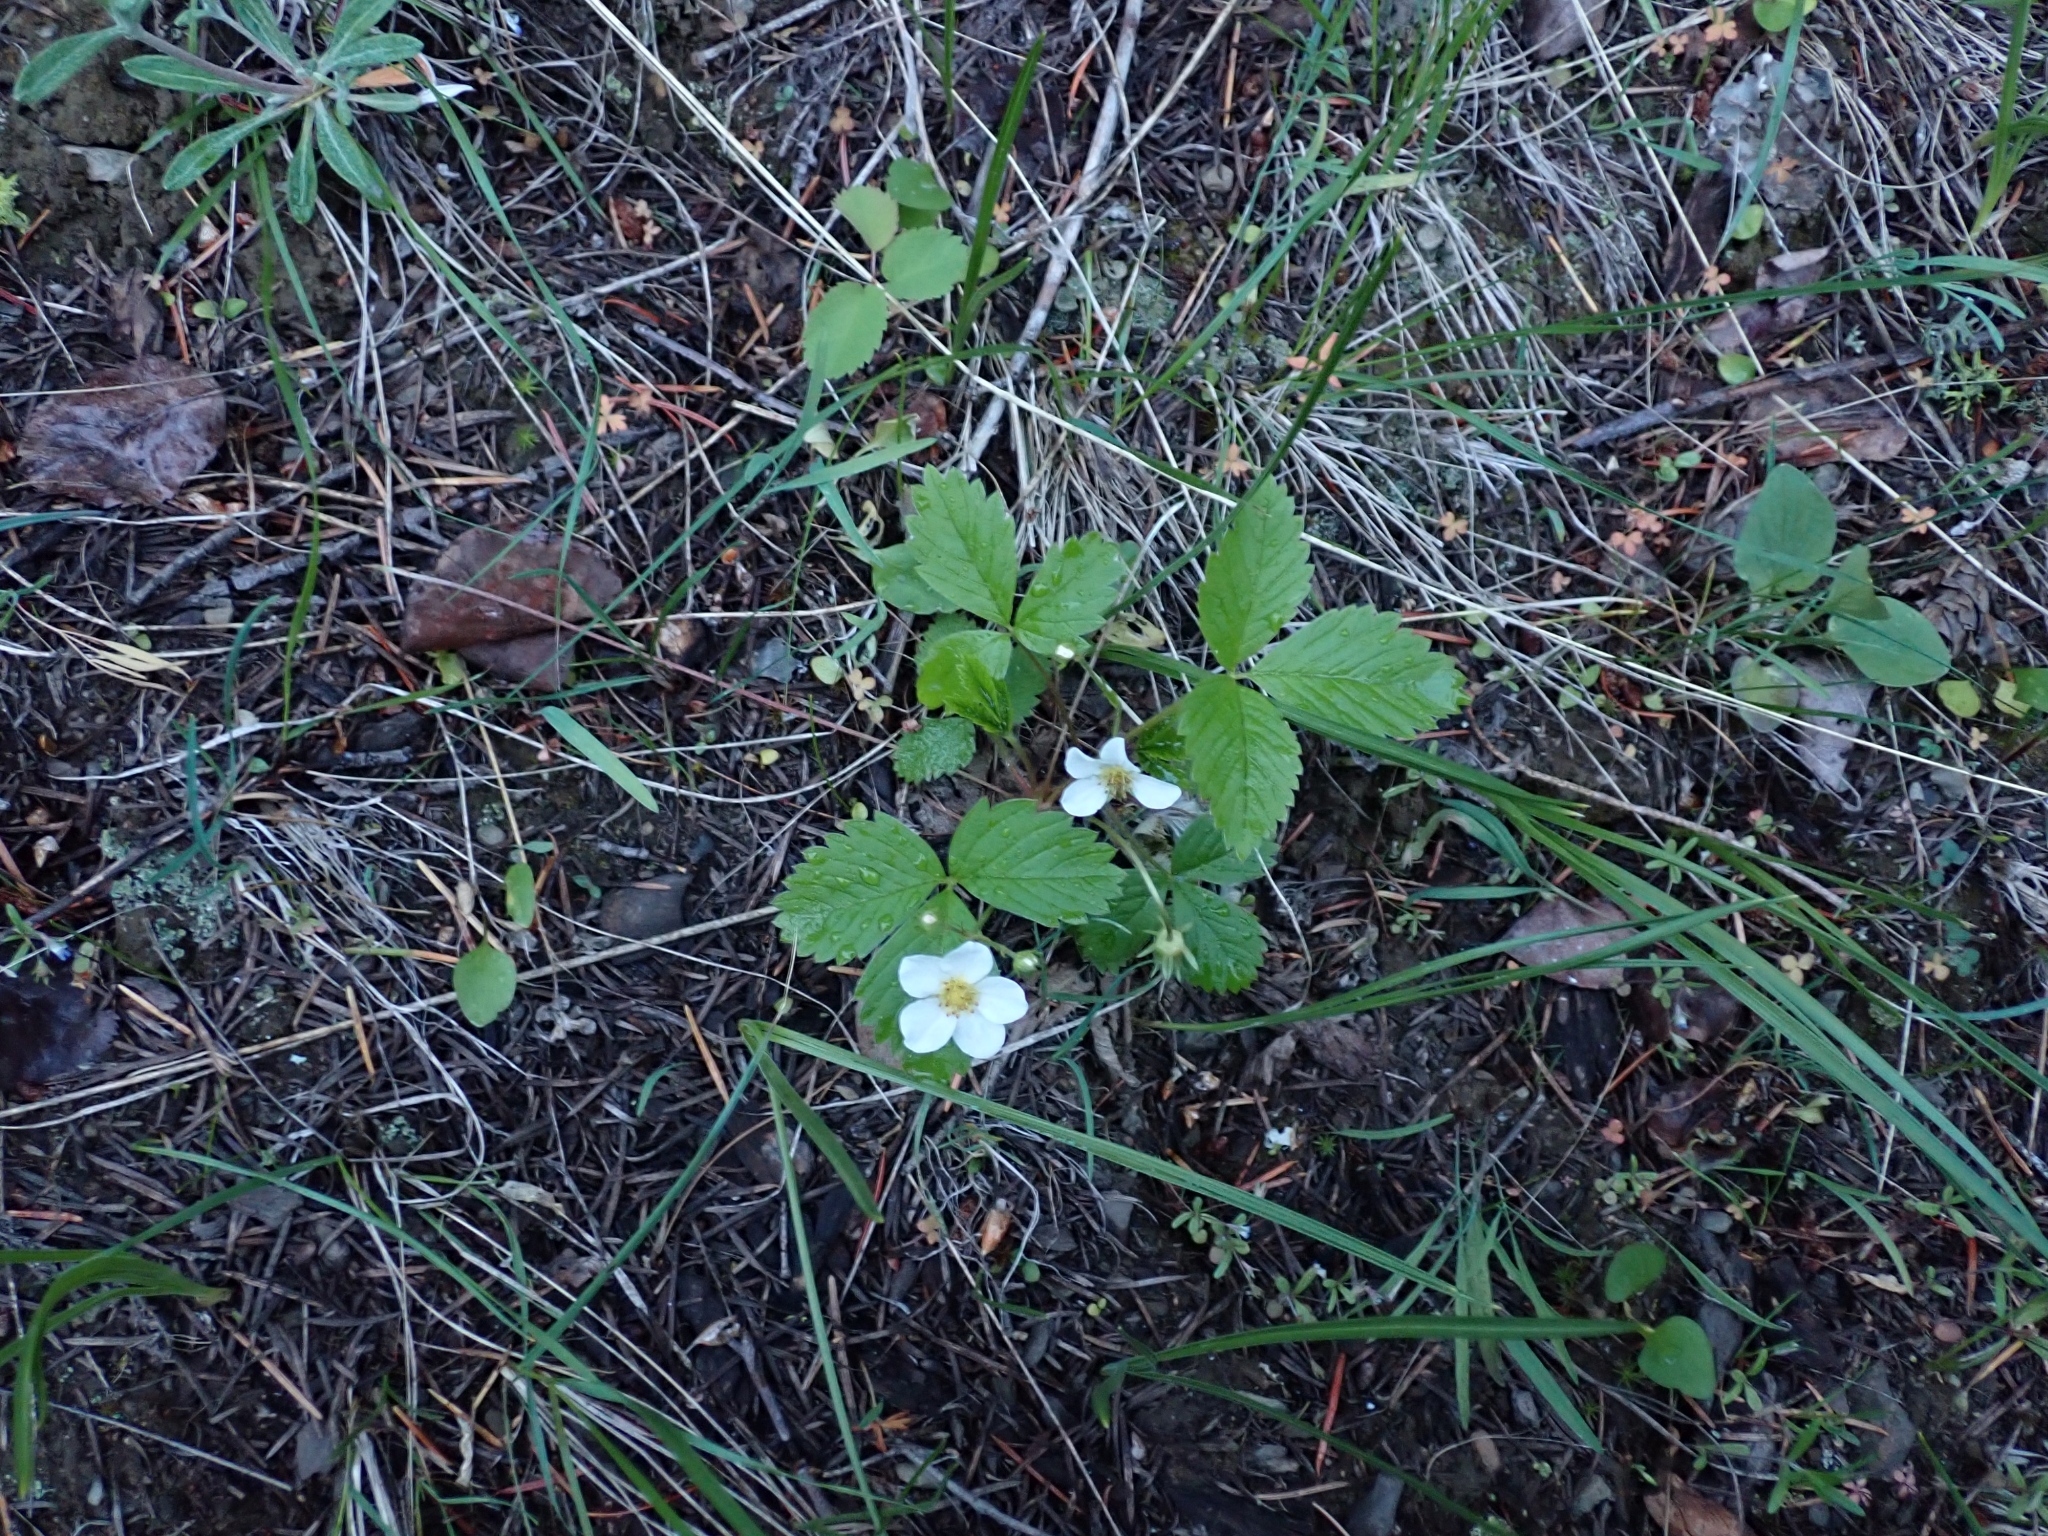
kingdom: Plantae
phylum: Tracheophyta
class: Magnoliopsida
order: Rosales
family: Rosaceae
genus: Fragaria
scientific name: Fragaria vesca
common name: Wild strawberry
